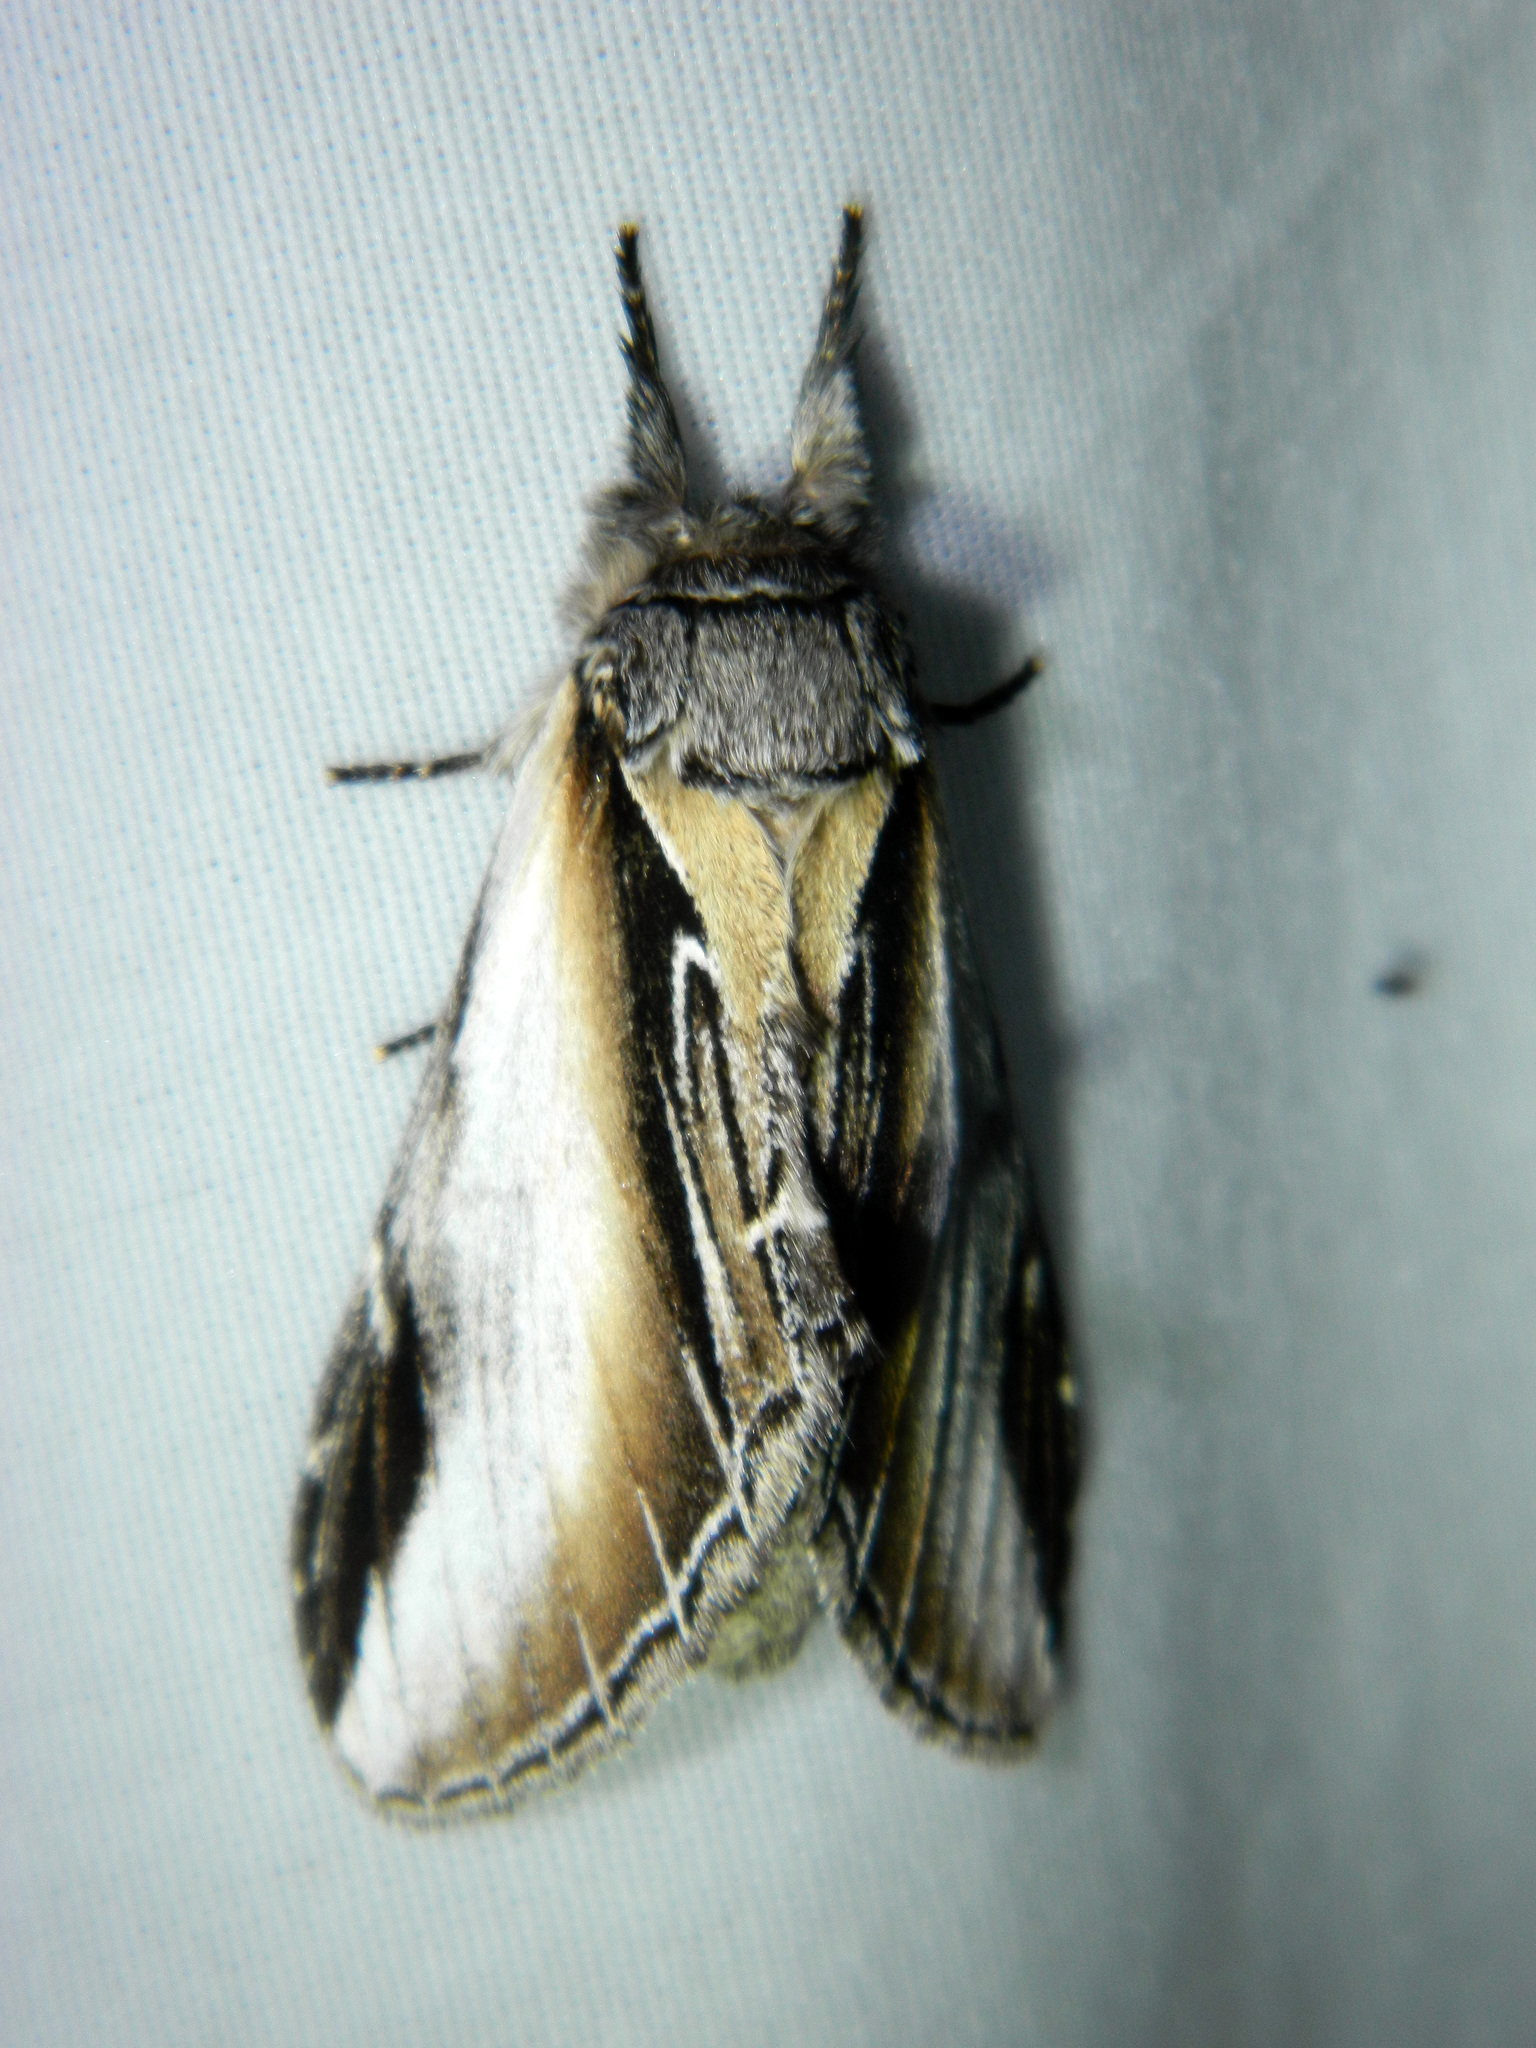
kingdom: Animalia
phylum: Arthropoda
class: Insecta
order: Lepidoptera
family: Notodontidae
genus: Pheosia
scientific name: Pheosia rimosa
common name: Black-rimmed prominent
